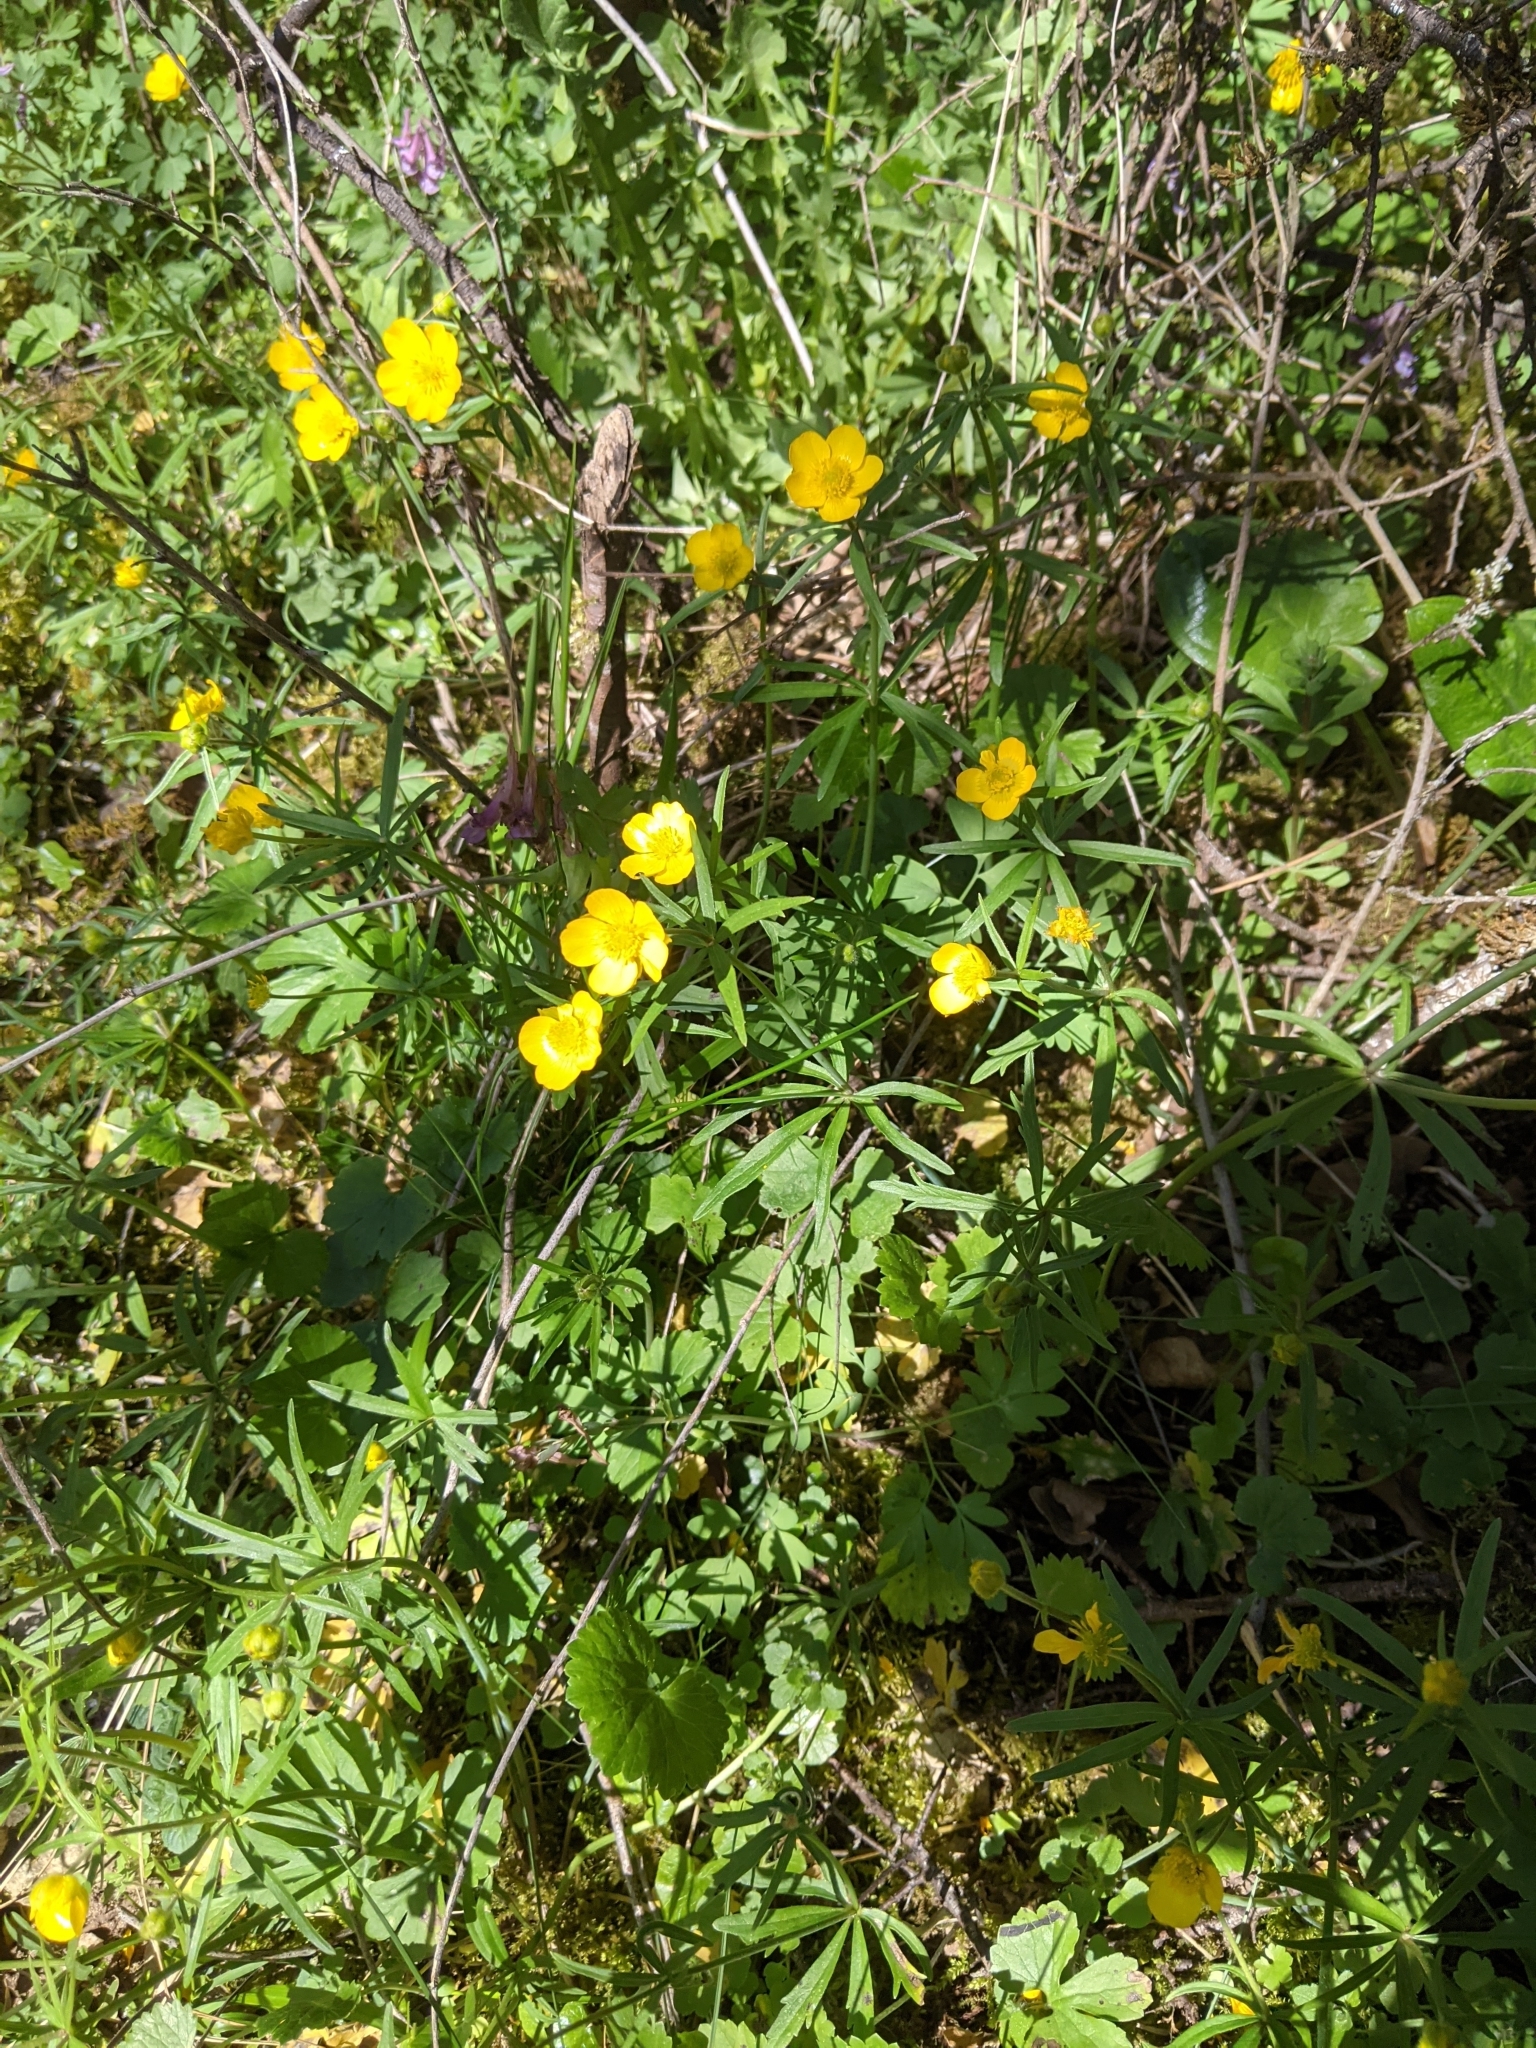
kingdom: Plantae
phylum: Tracheophyta
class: Magnoliopsida
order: Ranunculales
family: Ranunculaceae
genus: Ranunculus
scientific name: Ranunculus auricomus
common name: Goldilocks buttercup
